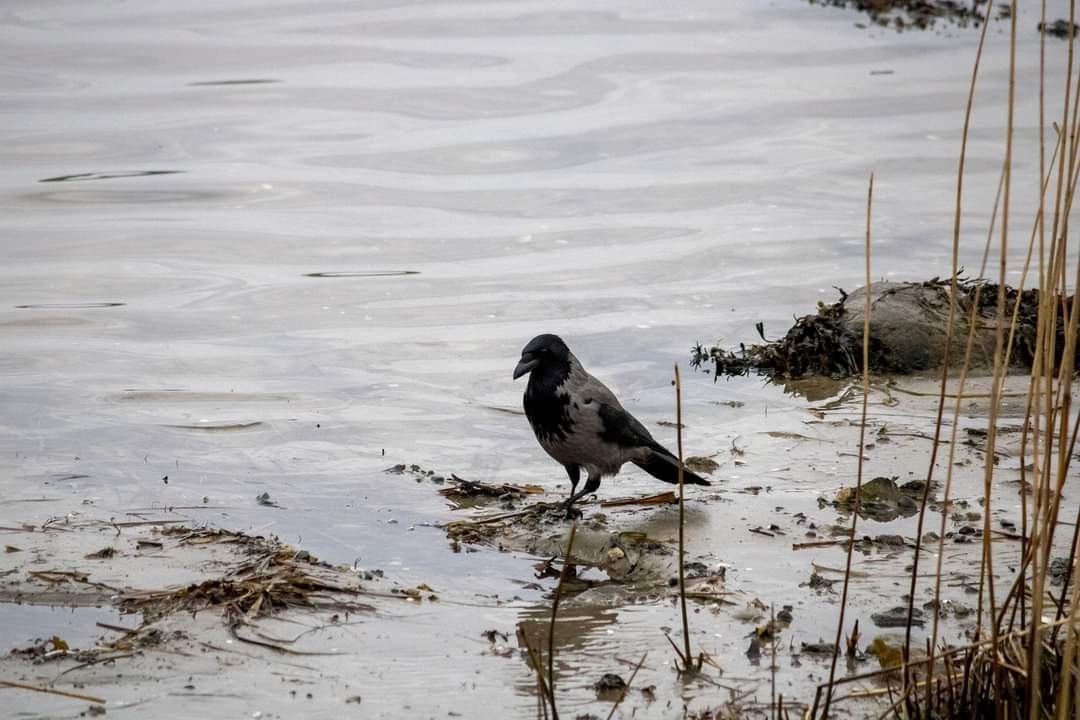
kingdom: Animalia
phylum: Chordata
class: Aves
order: Passeriformes
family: Corvidae
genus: Corvus
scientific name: Corvus cornix
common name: Hooded crow
